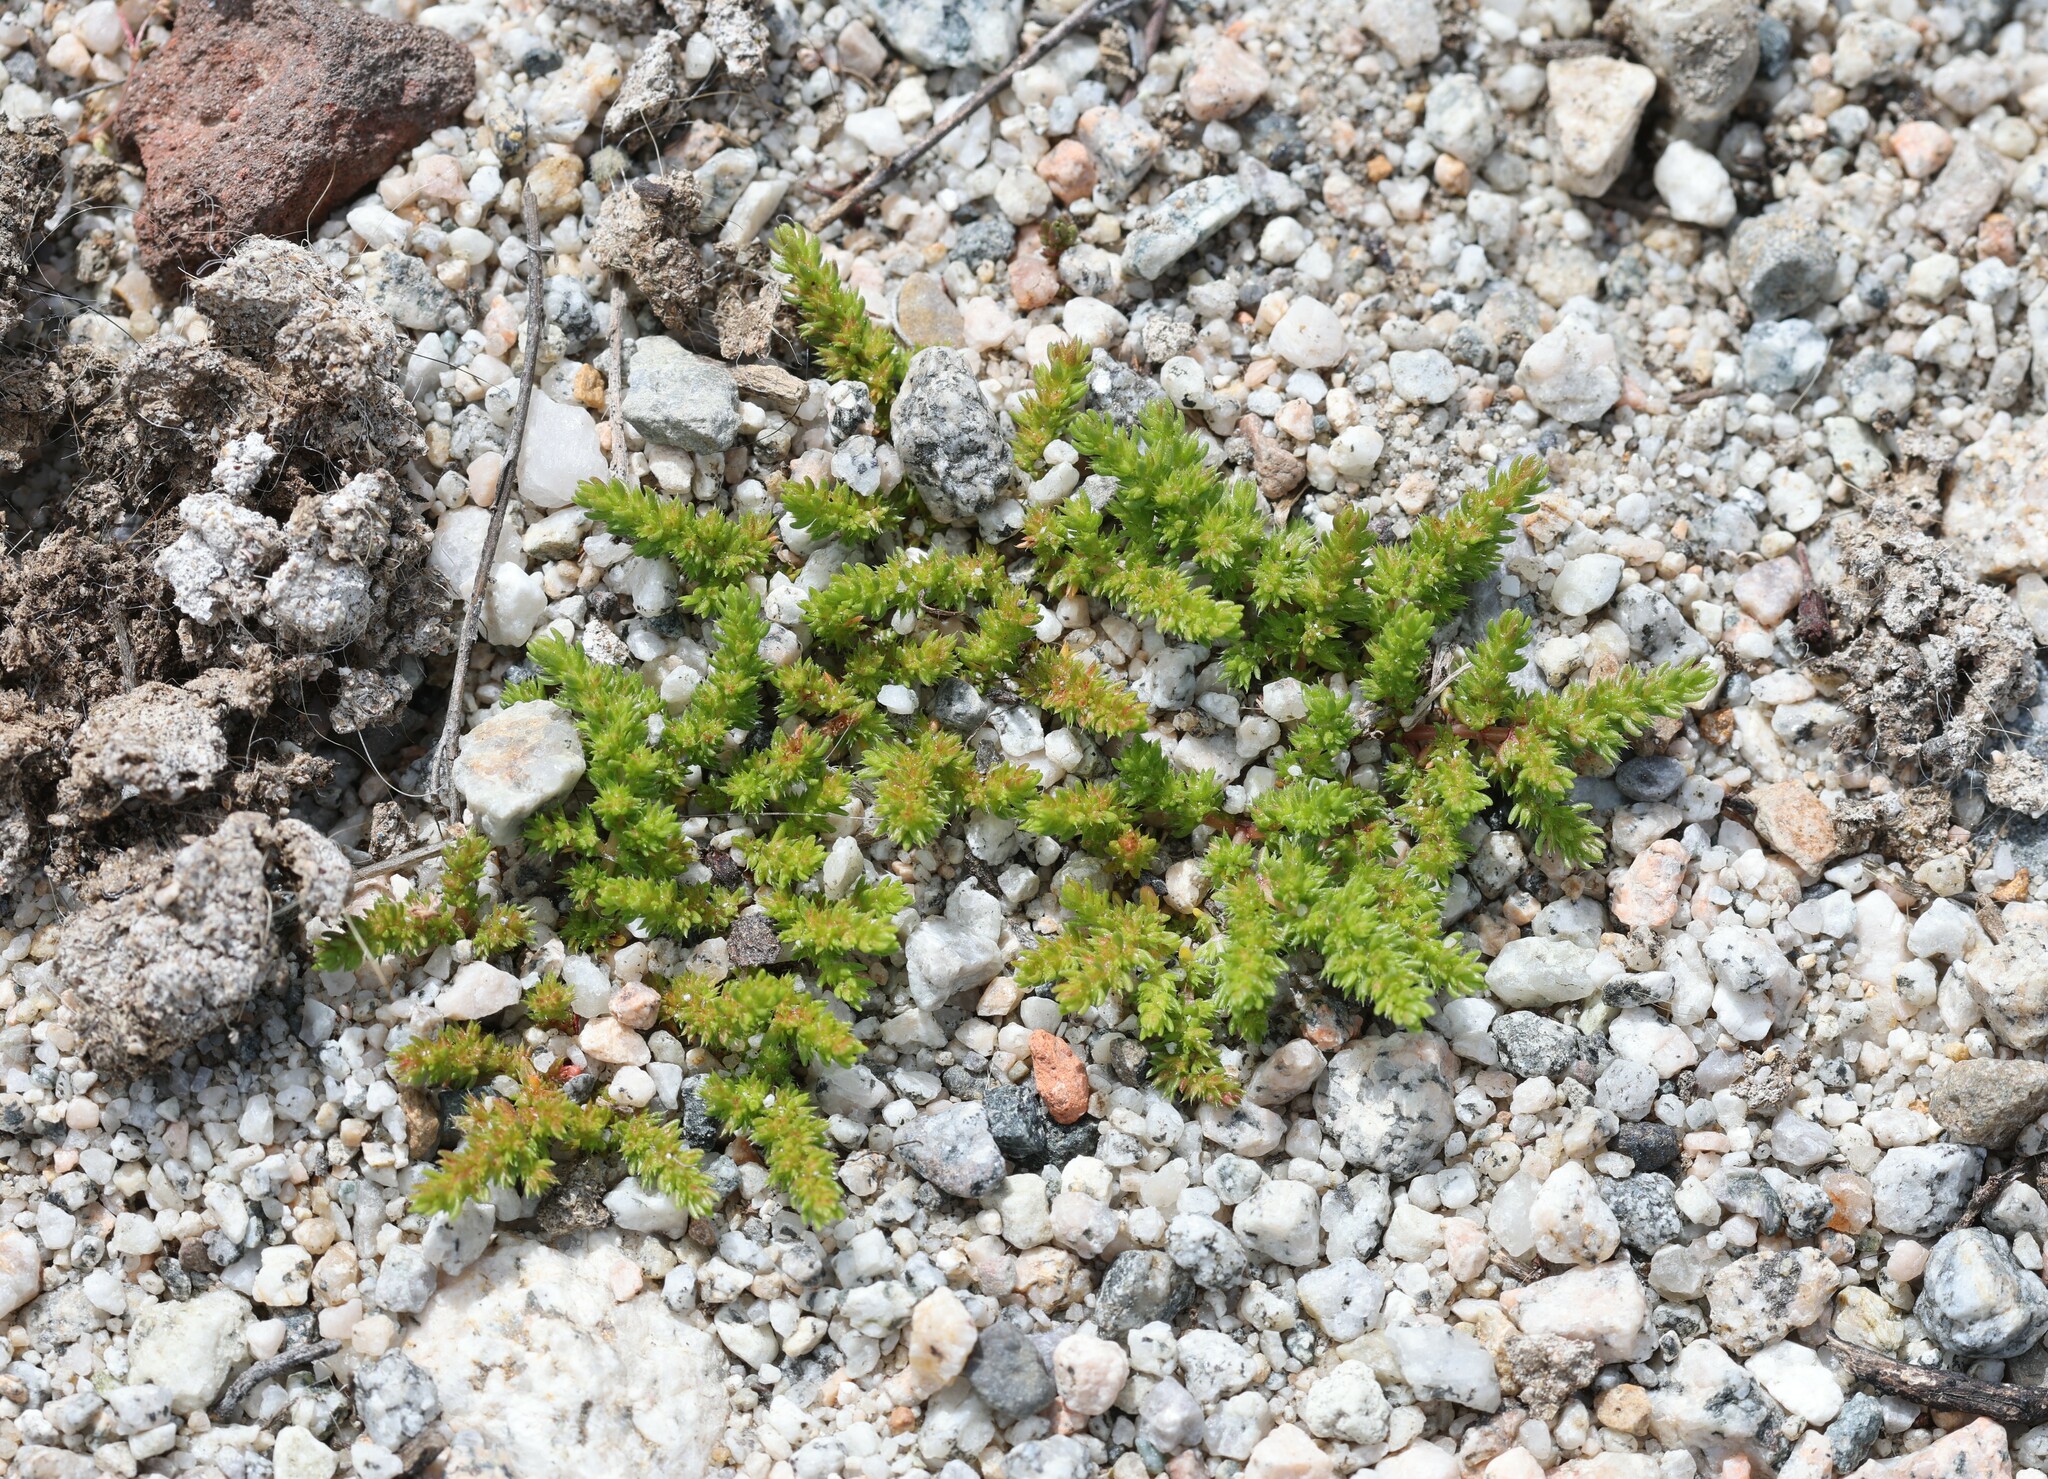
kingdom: Plantae
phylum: Tracheophyta
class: Magnoliopsida
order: Saxifragales
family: Crassulaceae
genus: Crassula
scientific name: Crassula tillaea
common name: Mossy stonecrop
